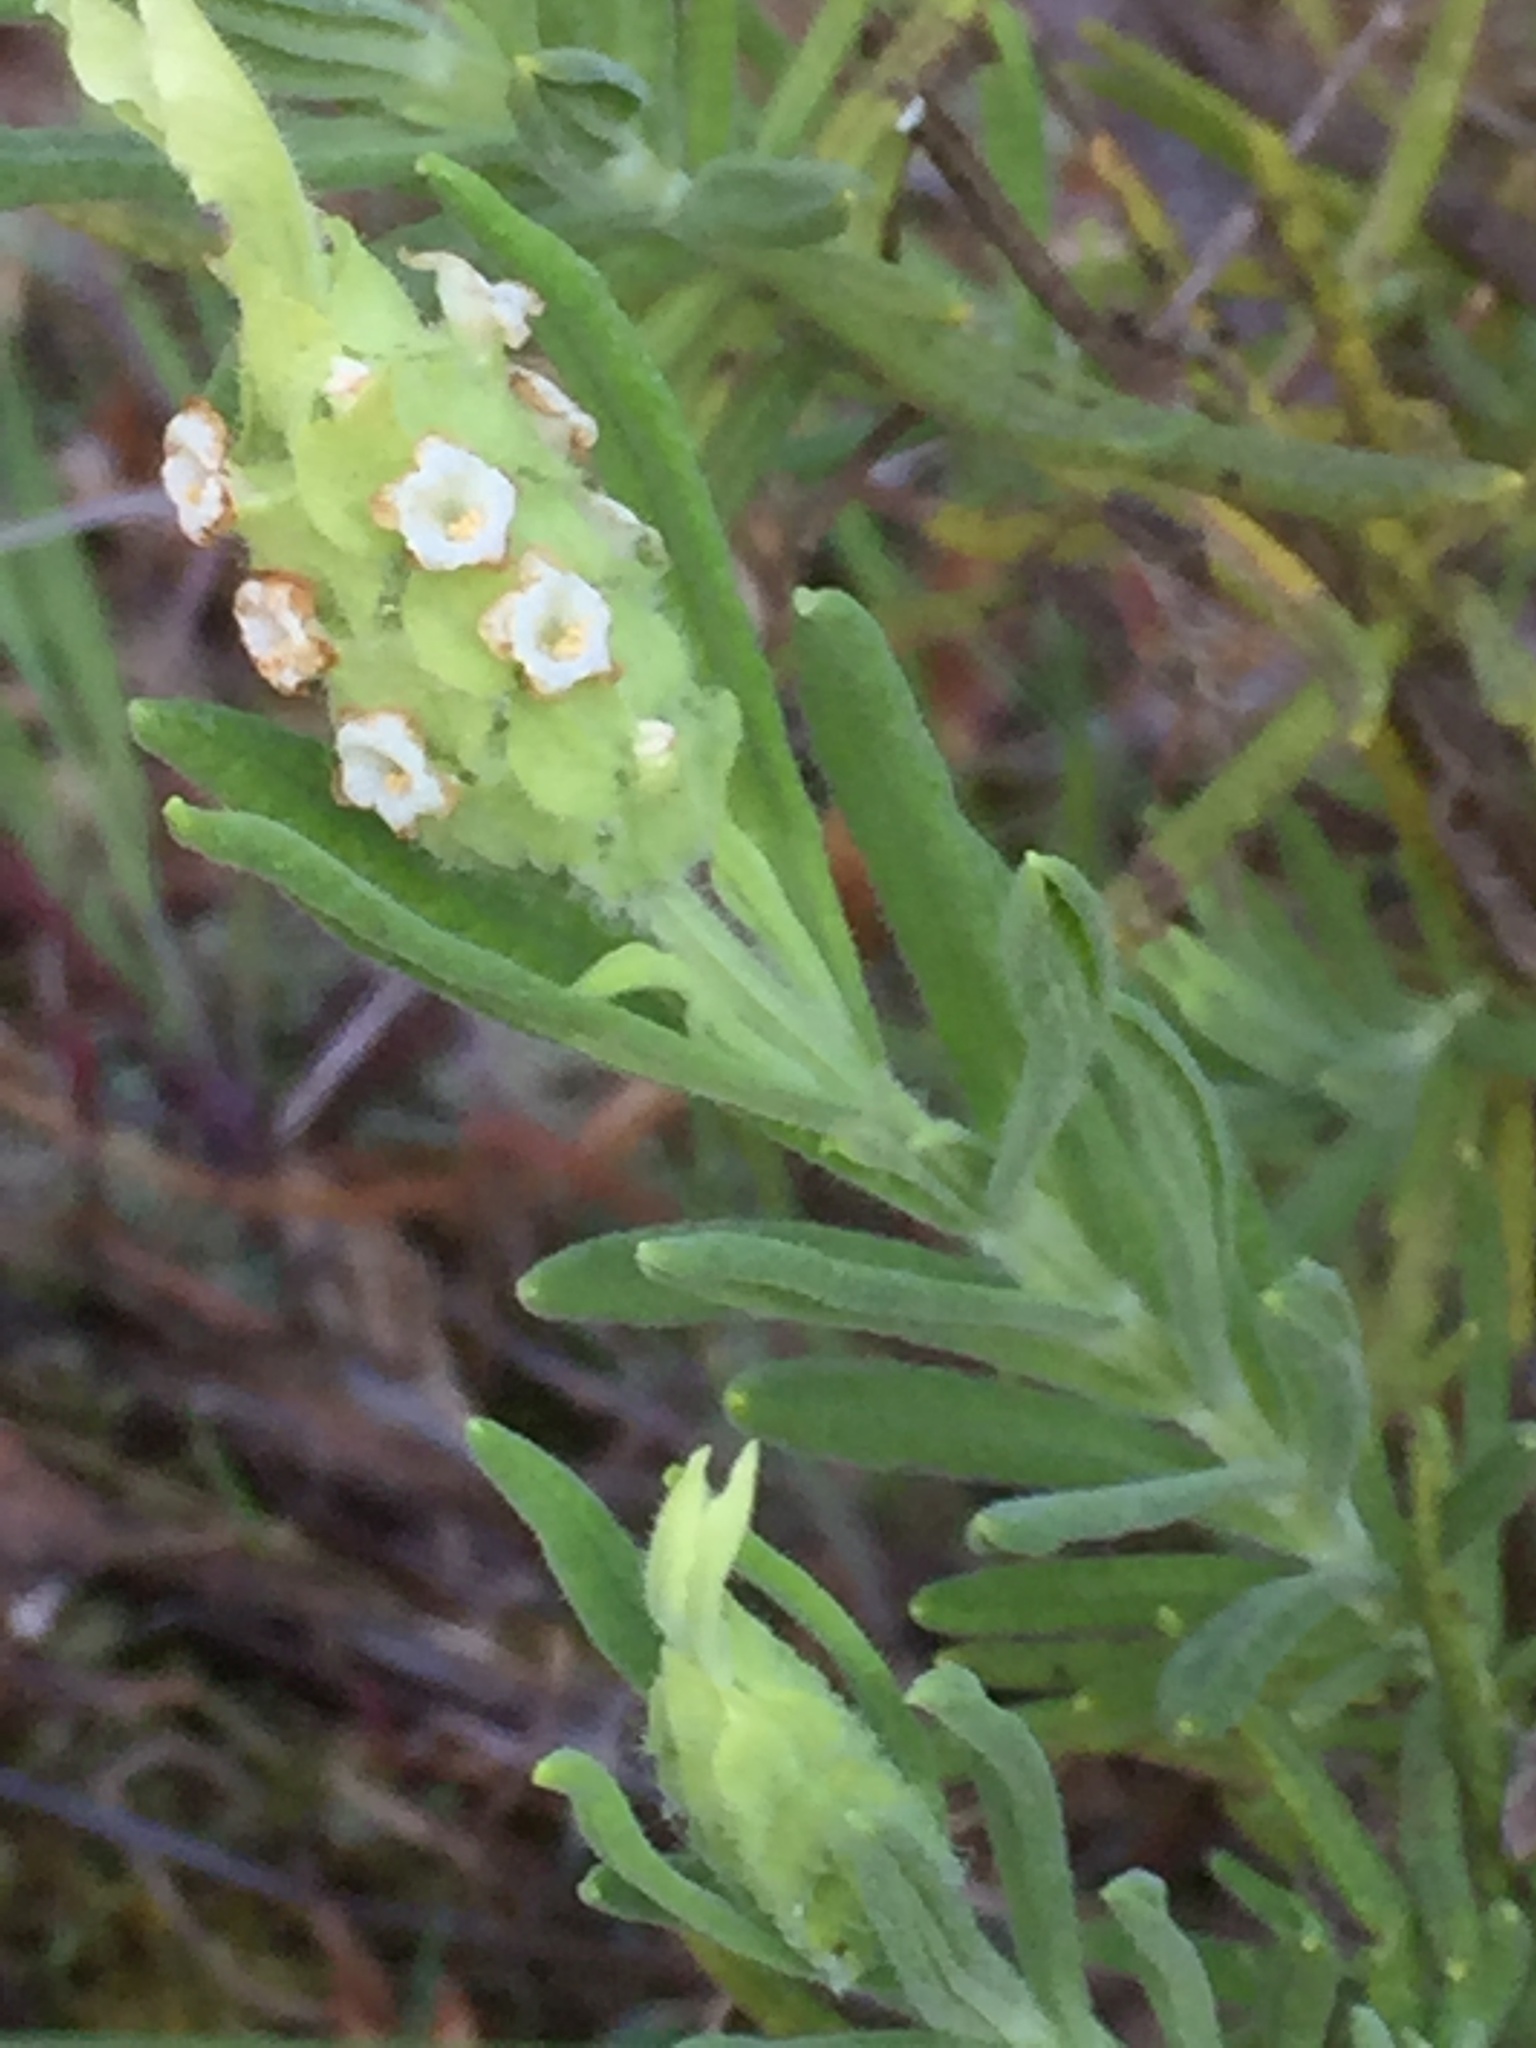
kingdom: Plantae
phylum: Tracheophyta
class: Magnoliopsida
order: Lamiales
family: Lamiaceae
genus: Lavandula
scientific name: Lavandula viridis
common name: Green spanish lavender
